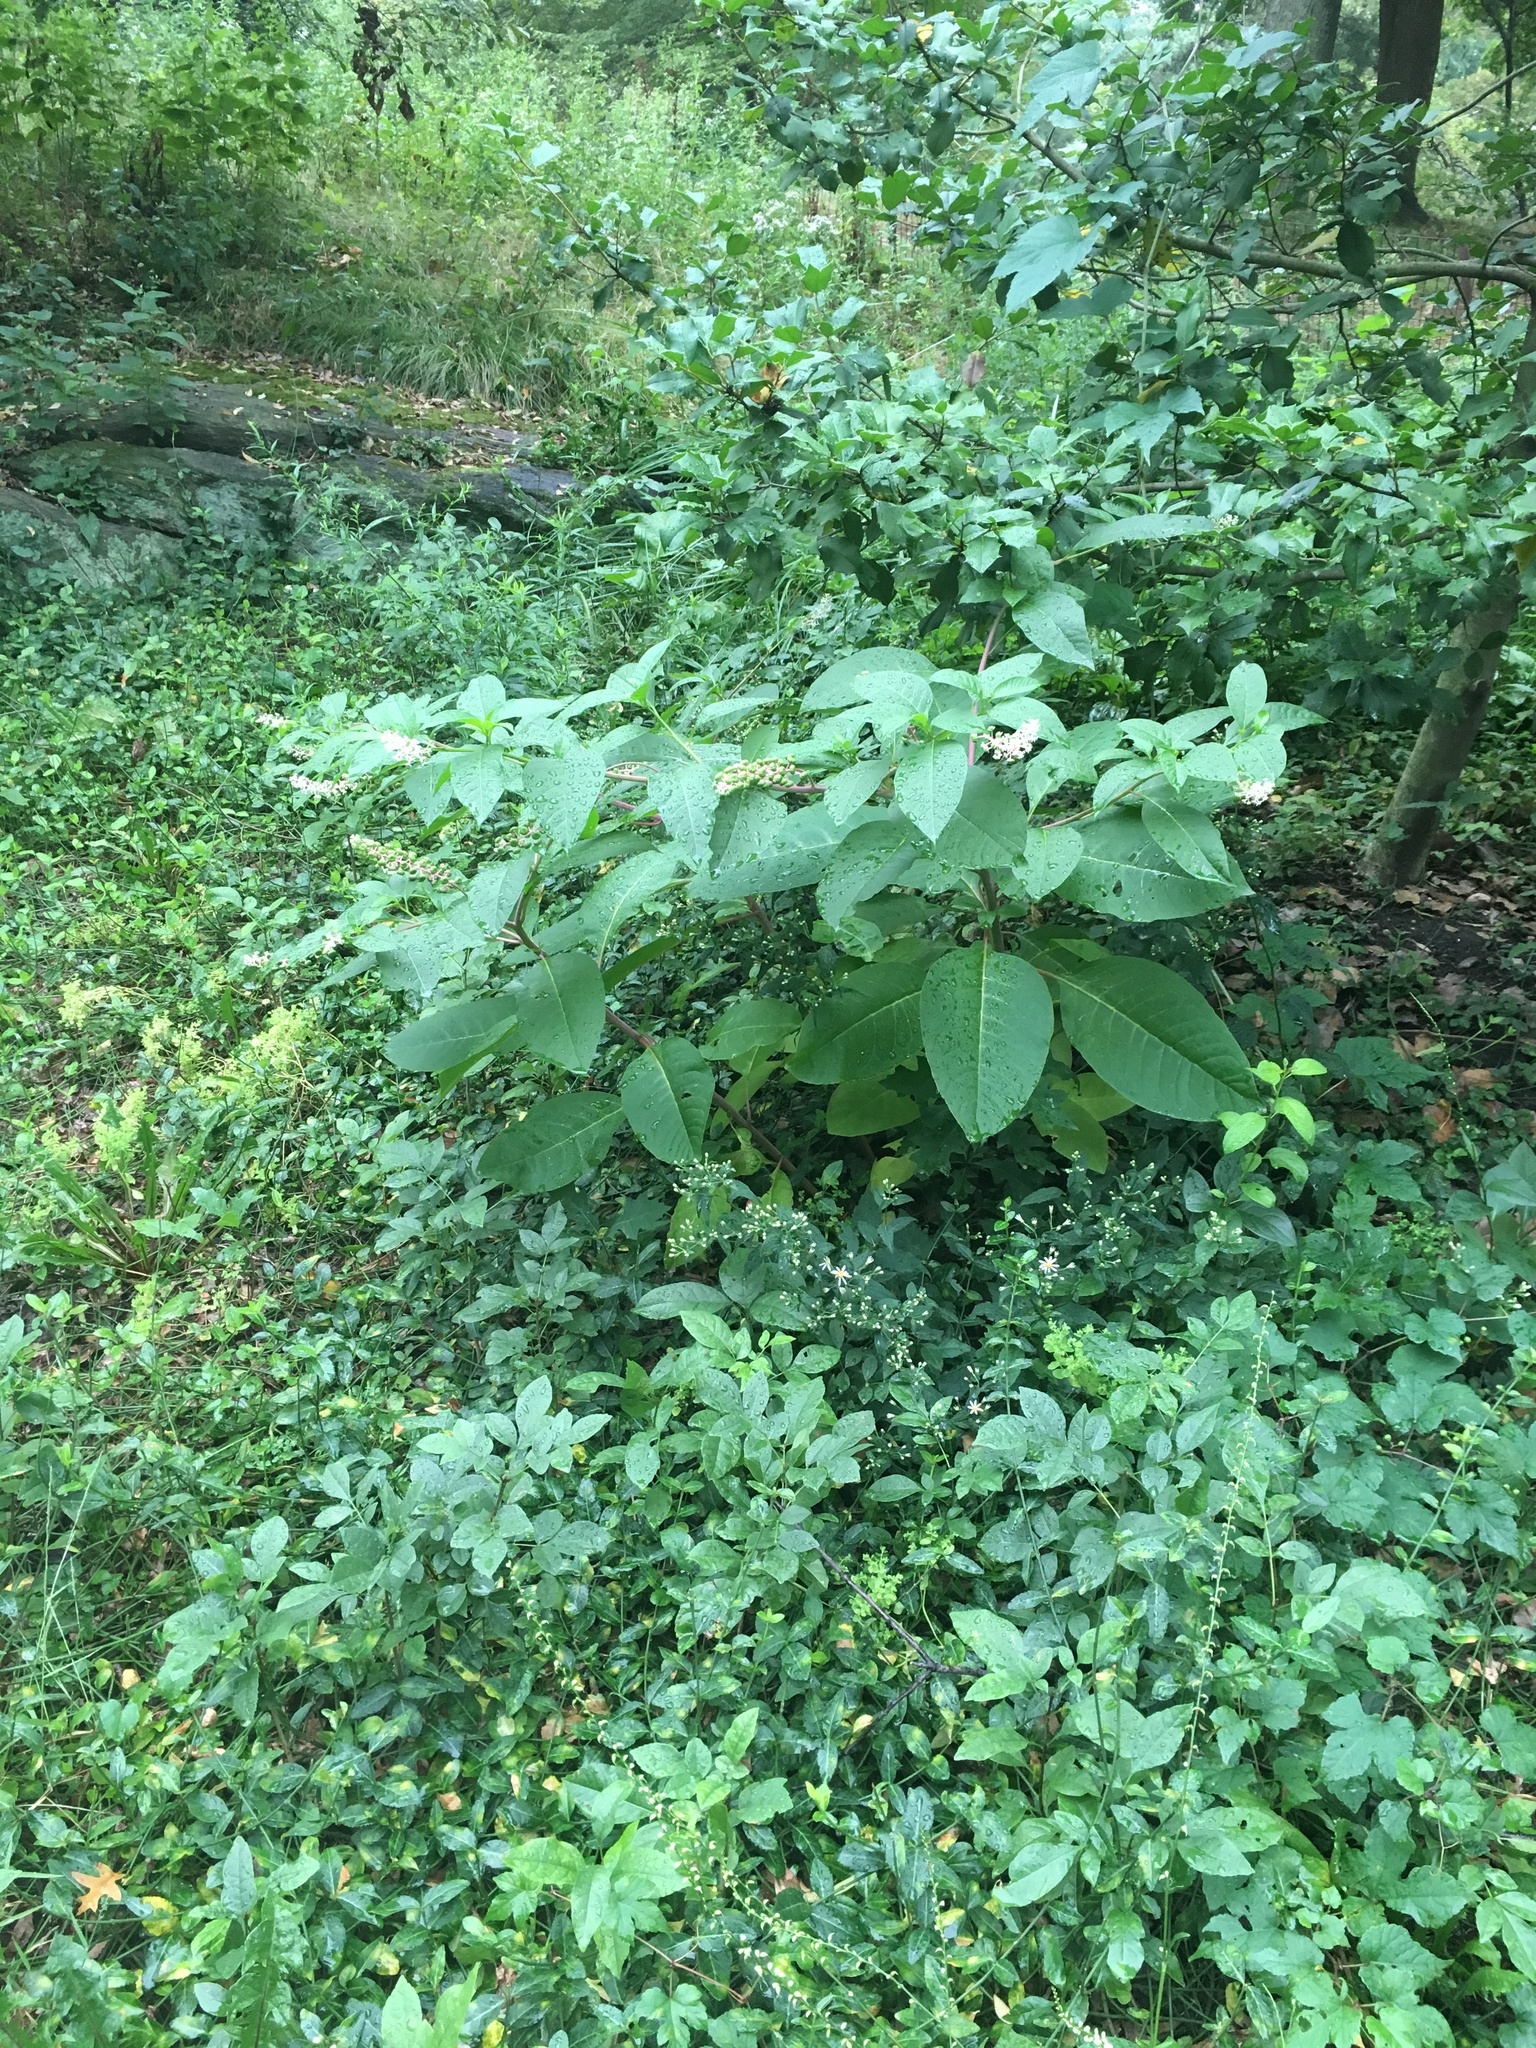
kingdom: Plantae
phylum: Tracheophyta
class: Magnoliopsida
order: Caryophyllales
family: Phytolaccaceae
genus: Phytolacca
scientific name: Phytolacca americana
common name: American pokeweed
